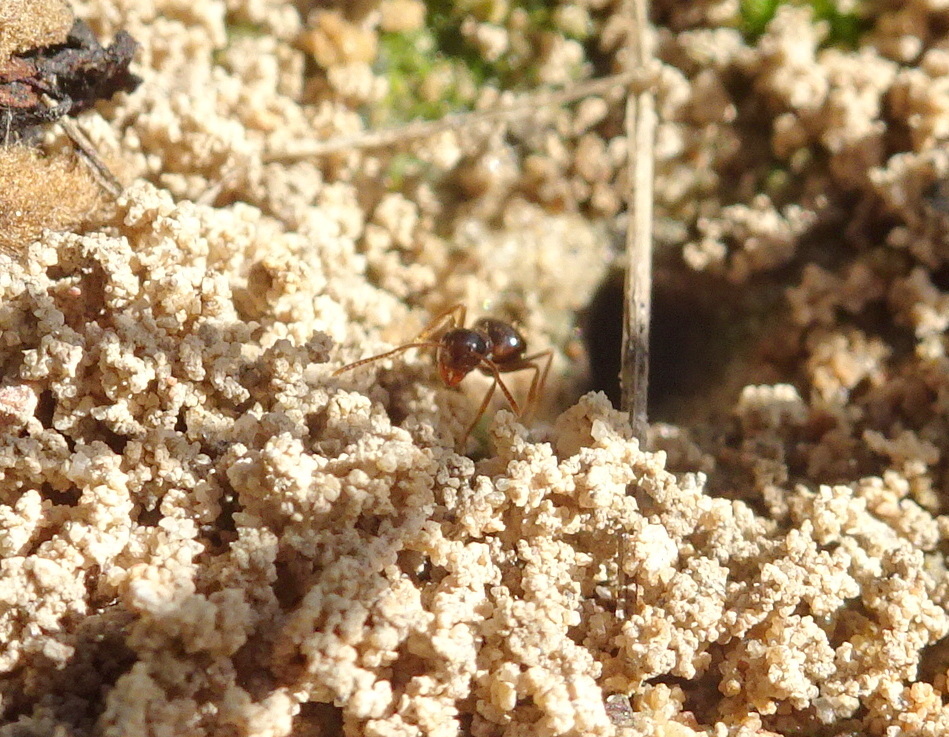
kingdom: Animalia
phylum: Arthropoda
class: Insecta
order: Hymenoptera
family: Formicidae
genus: Prenolepis
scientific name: Prenolepis imparis
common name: Small honey ant
